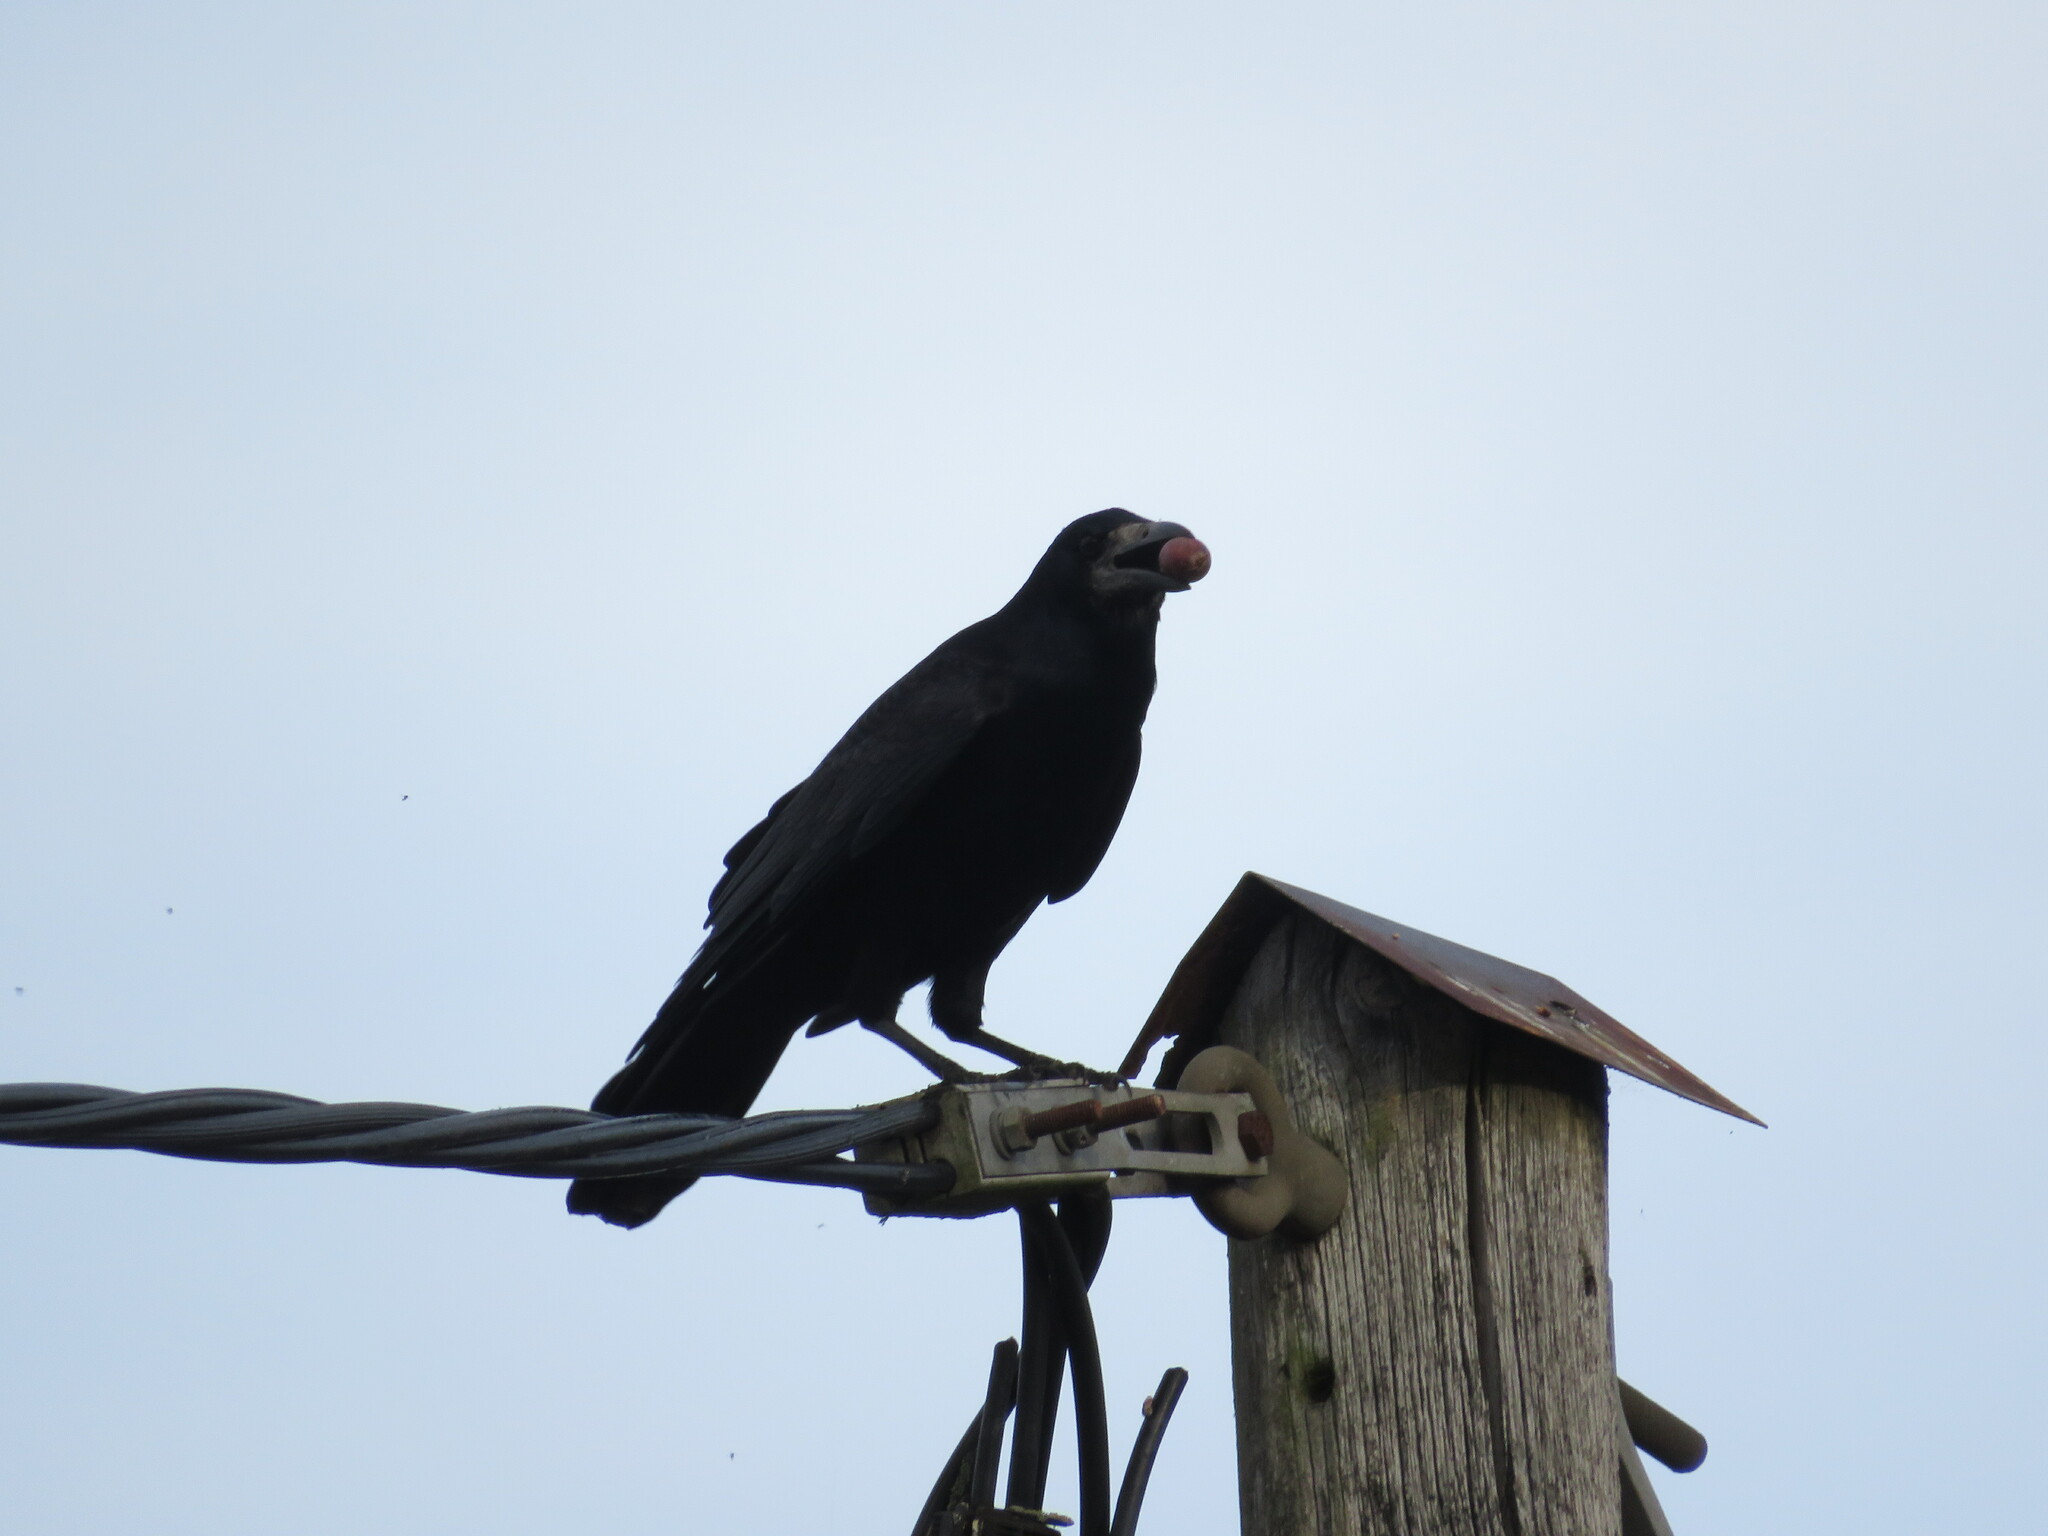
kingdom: Animalia
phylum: Chordata
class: Aves
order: Passeriformes
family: Corvidae
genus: Corvus
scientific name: Corvus frugilegus
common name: Rook
